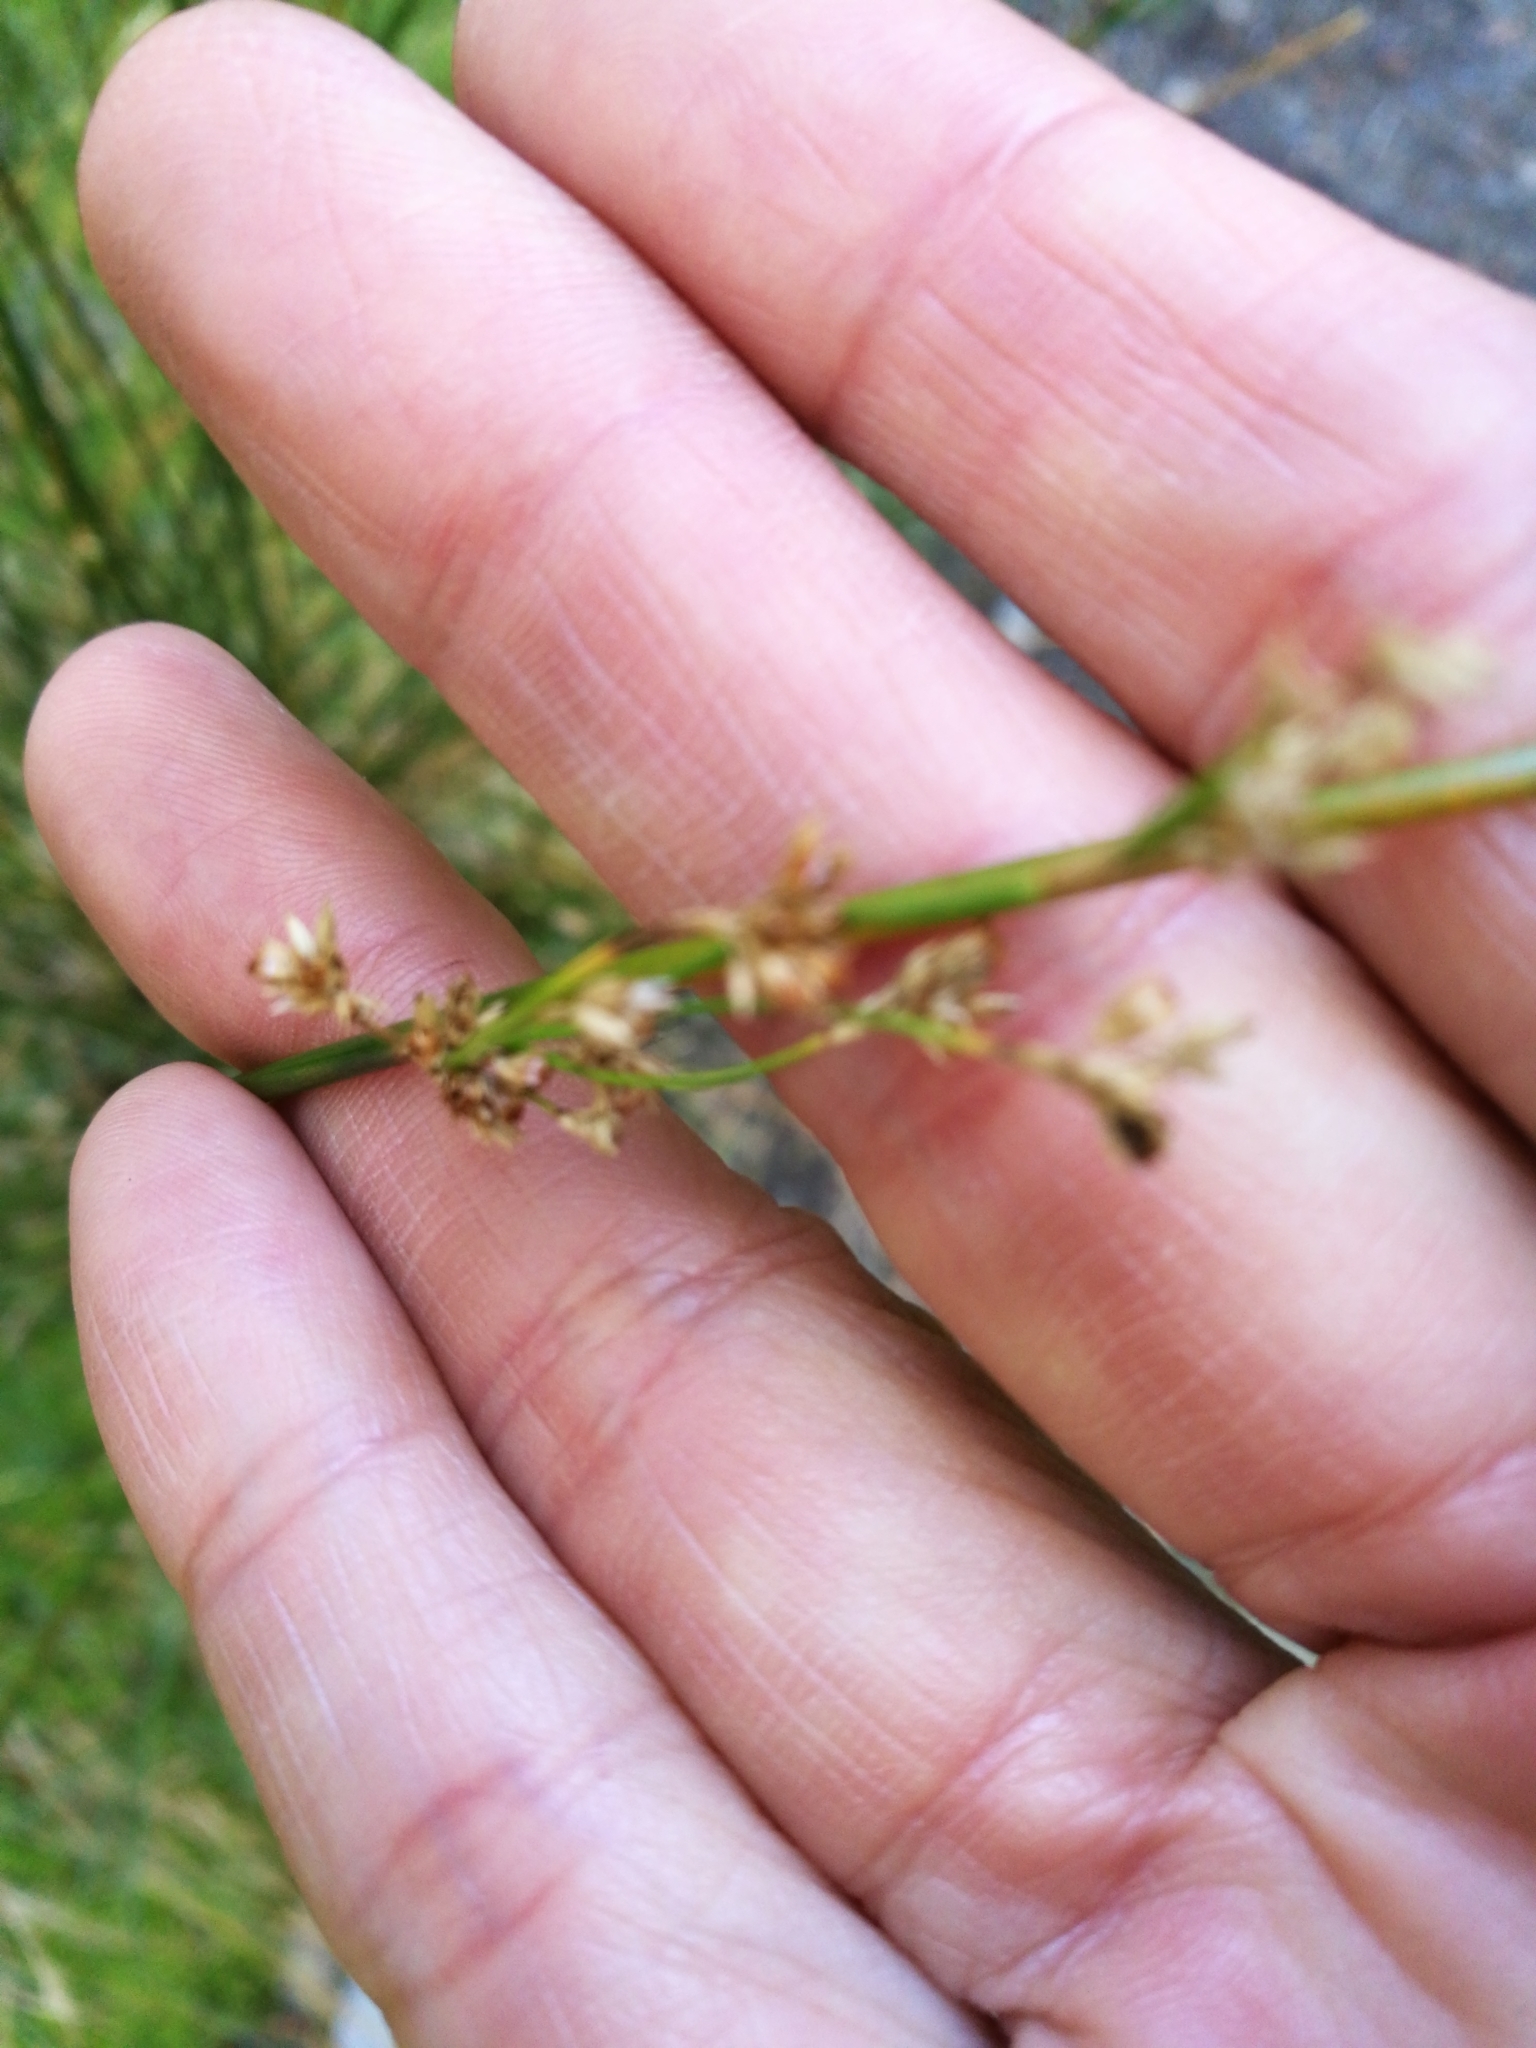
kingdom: Plantae
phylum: Tracheophyta
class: Liliopsida
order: Poales
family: Juncaceae
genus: Juncus
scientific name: Juncus
